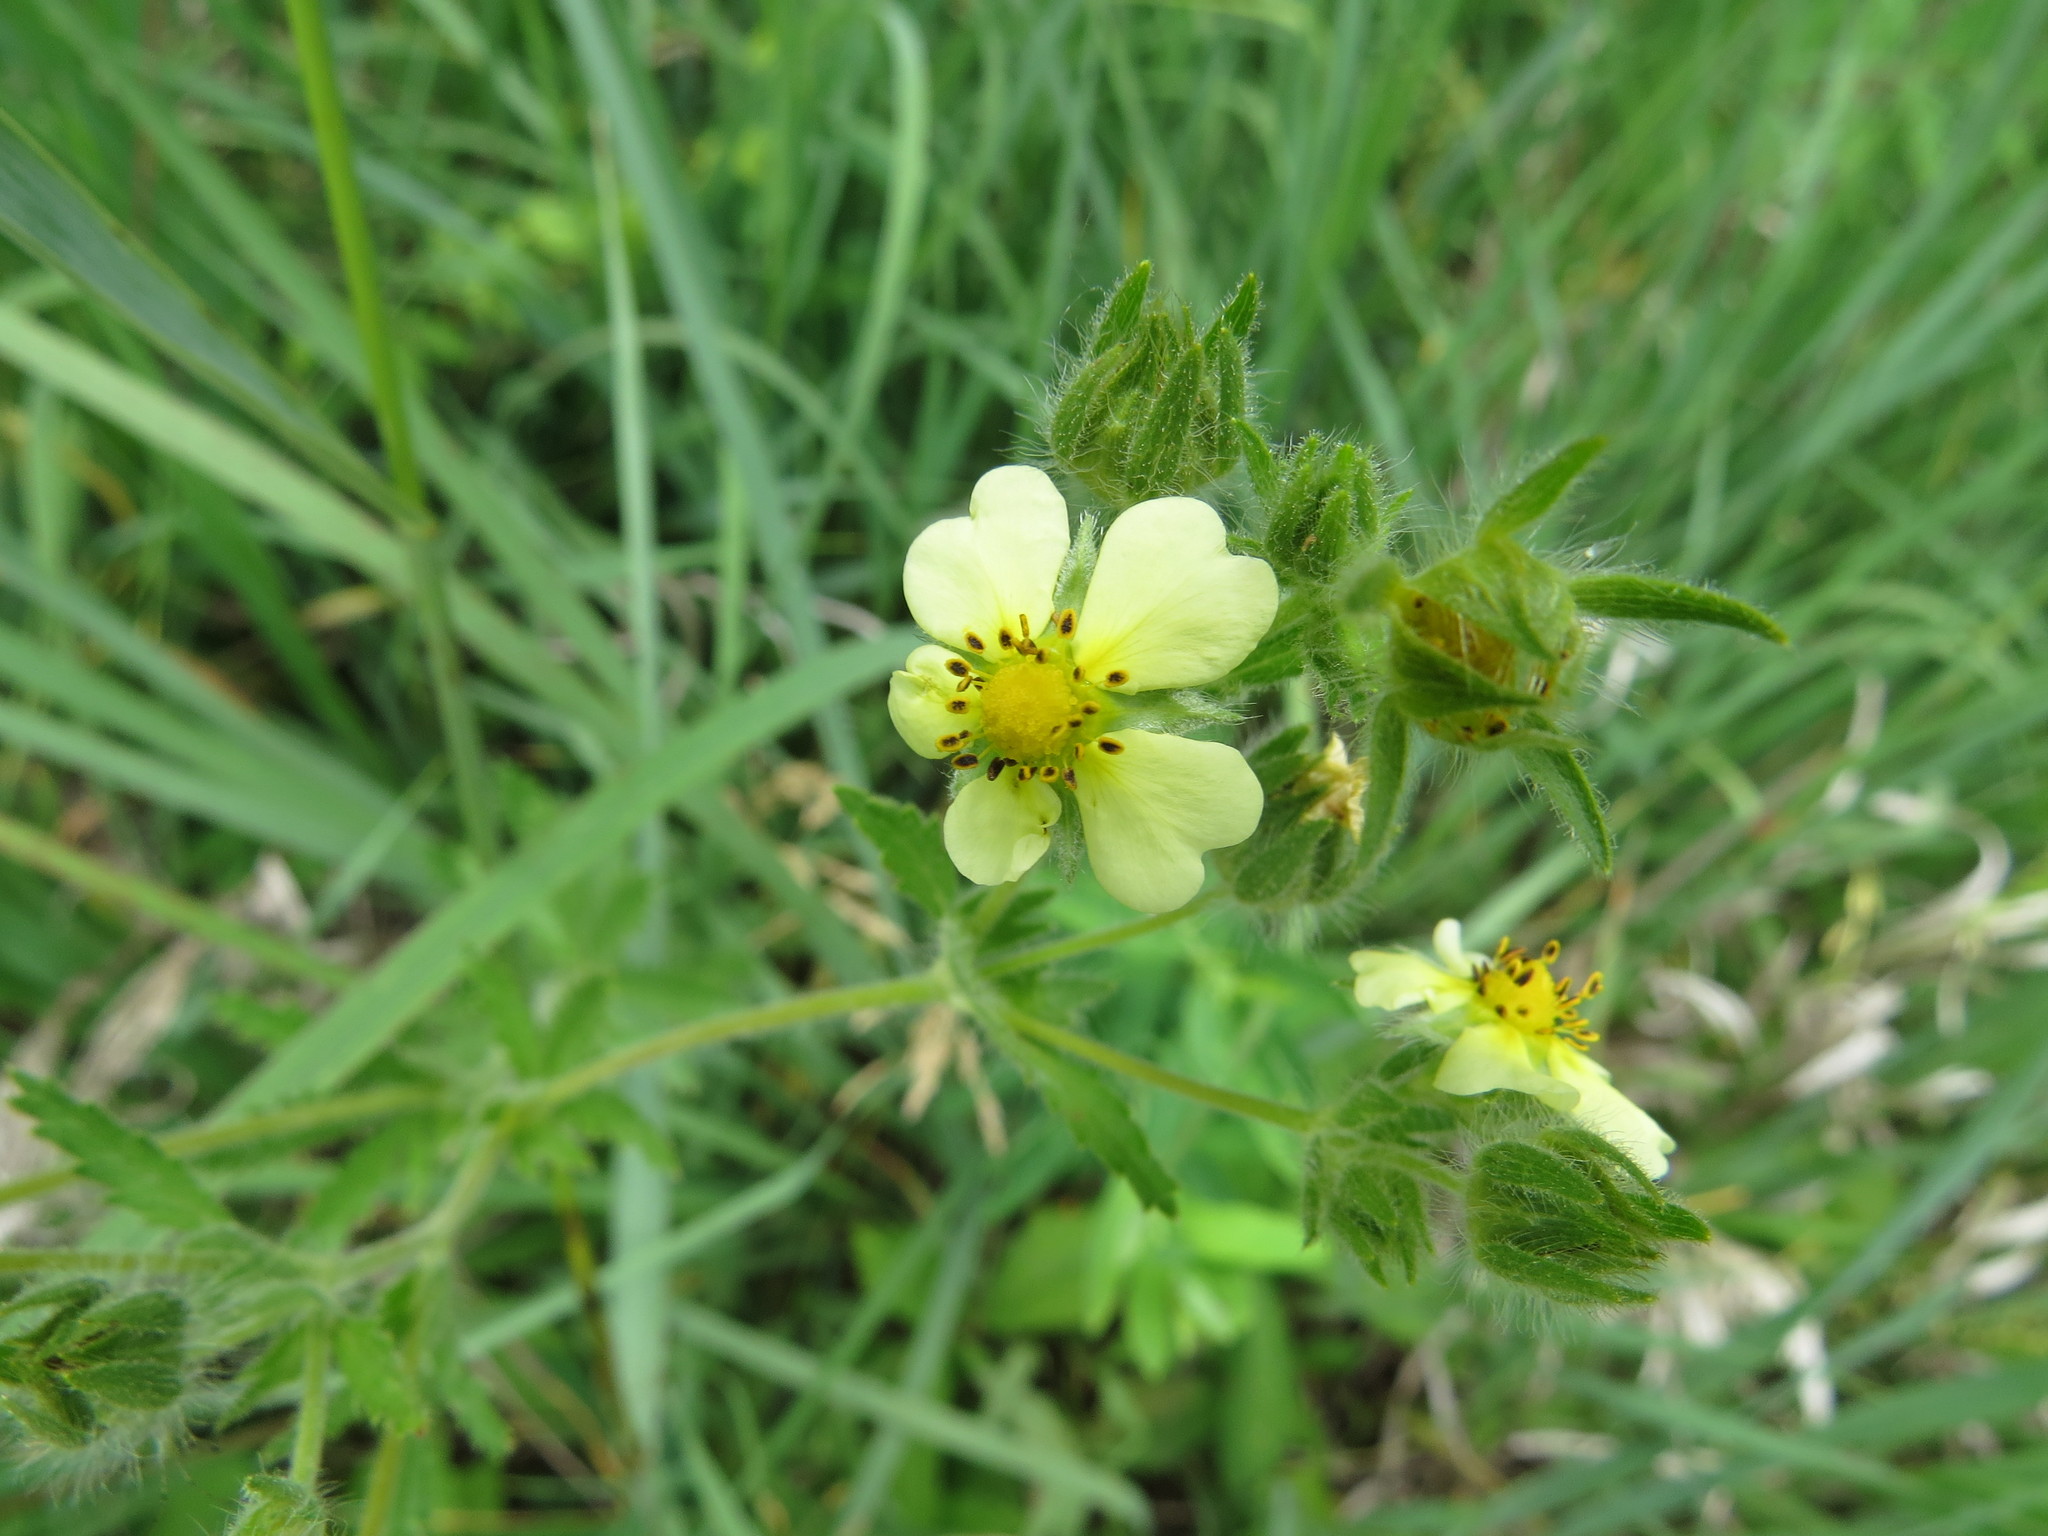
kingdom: Plantae
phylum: Tracheophyta
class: Magnoliopsida
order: Rosales
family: Rosaceae
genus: Potentilla
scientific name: Potentilla recta
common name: Sulphur cinquefoil
